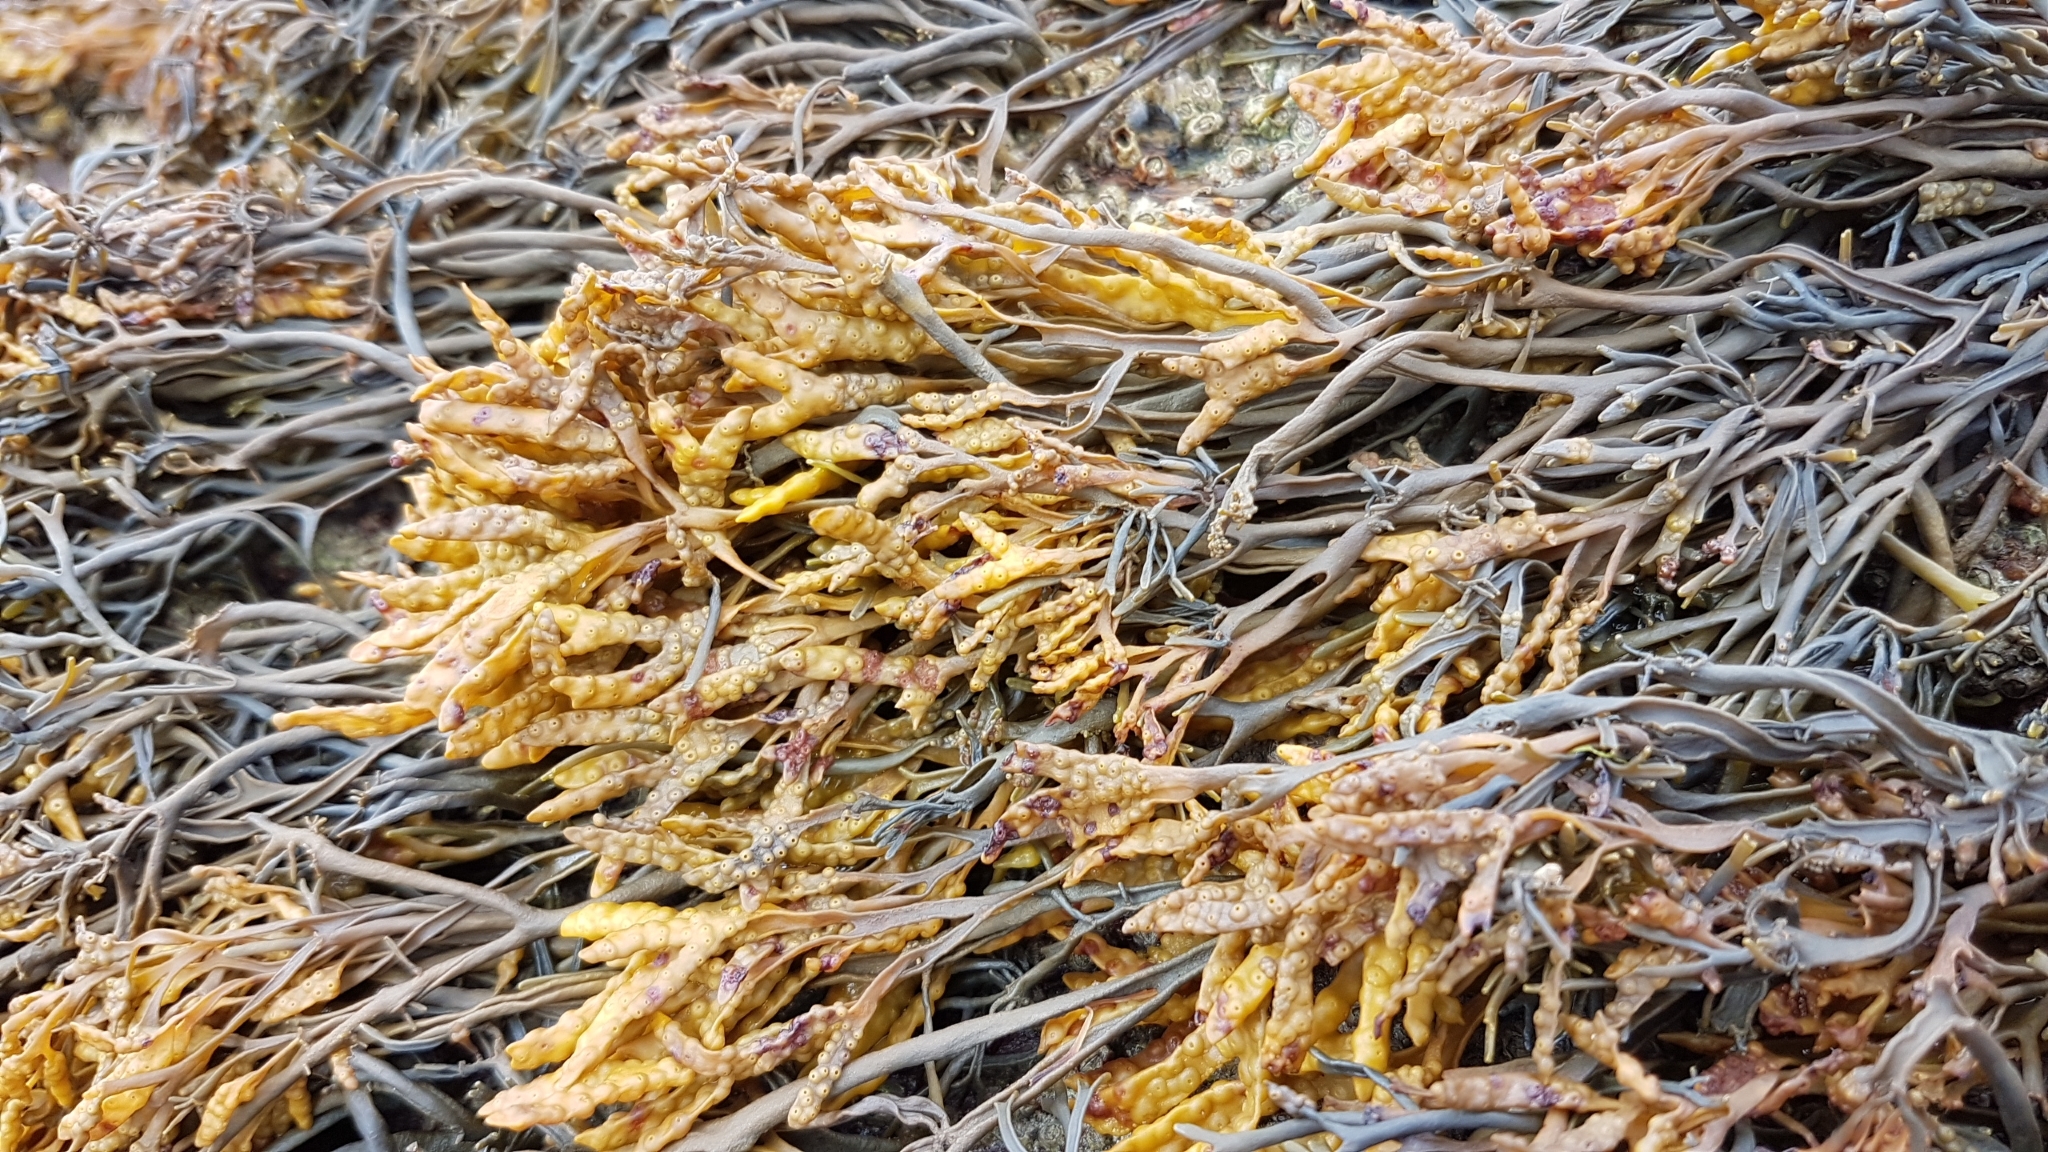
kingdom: Chromista
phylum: Ochrophyta
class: Phaeophyceae
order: Fucales
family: Fucaceae
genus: Pelvetia
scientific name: Pelvetia canaliculata
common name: Channelled wrack
